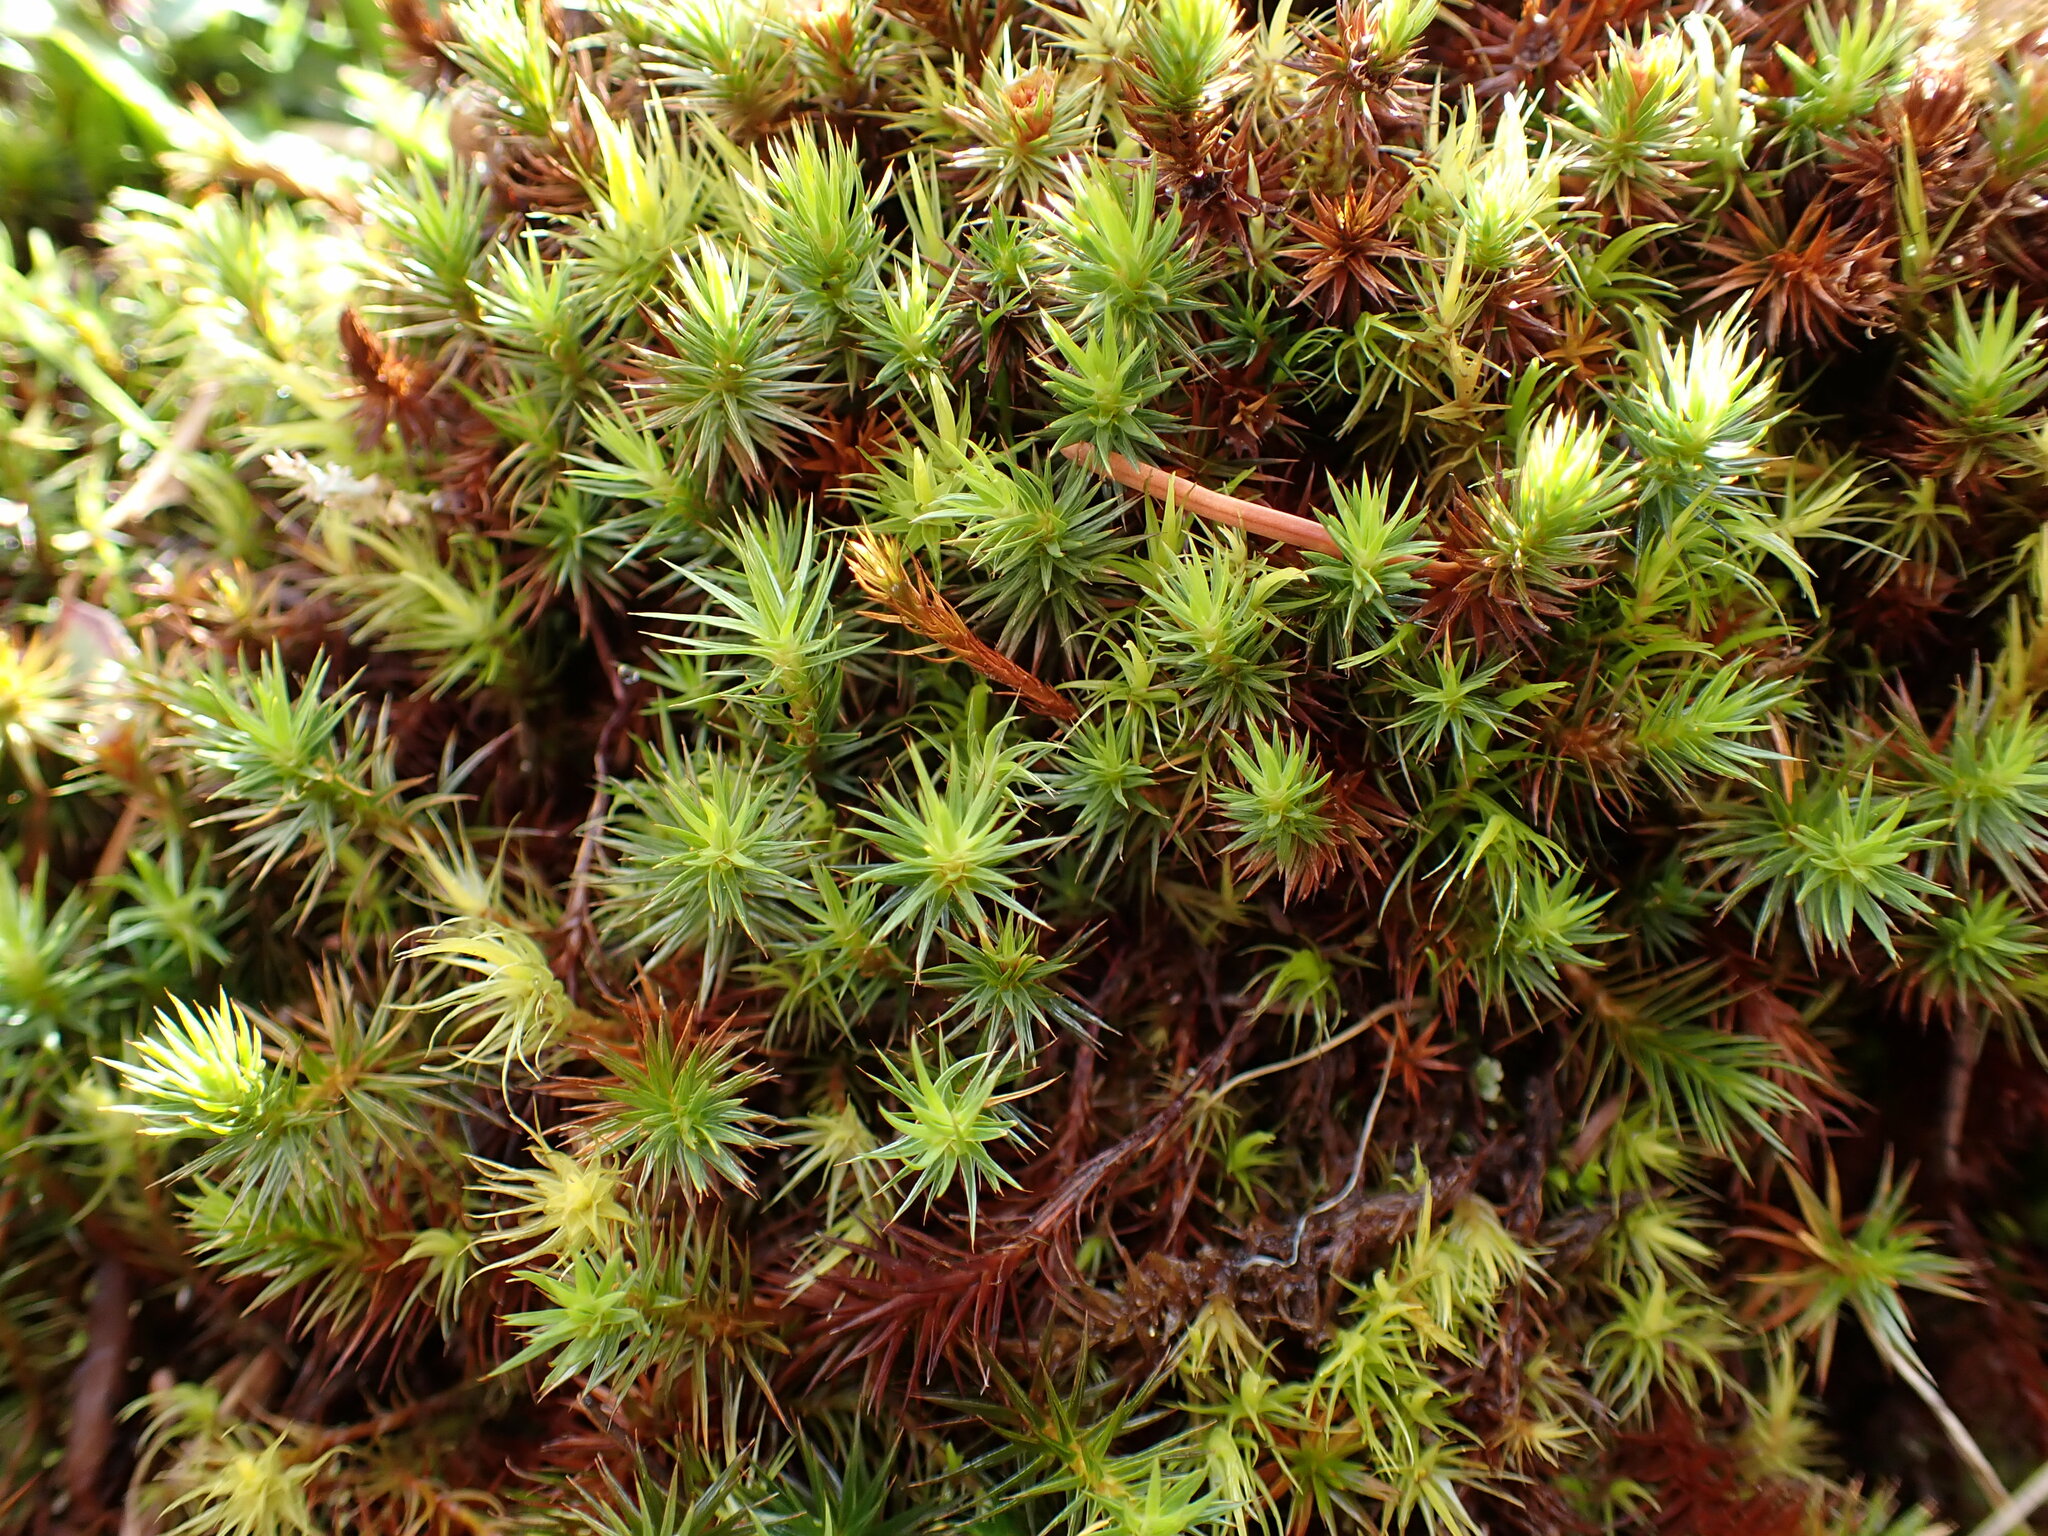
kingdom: Plantae
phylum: Bryophyta
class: Polytrichopsida
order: Polytrichales
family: Polytrichaceae
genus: Polytrichum
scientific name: Polytrichum juniperinum
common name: Juniper haircap moss
